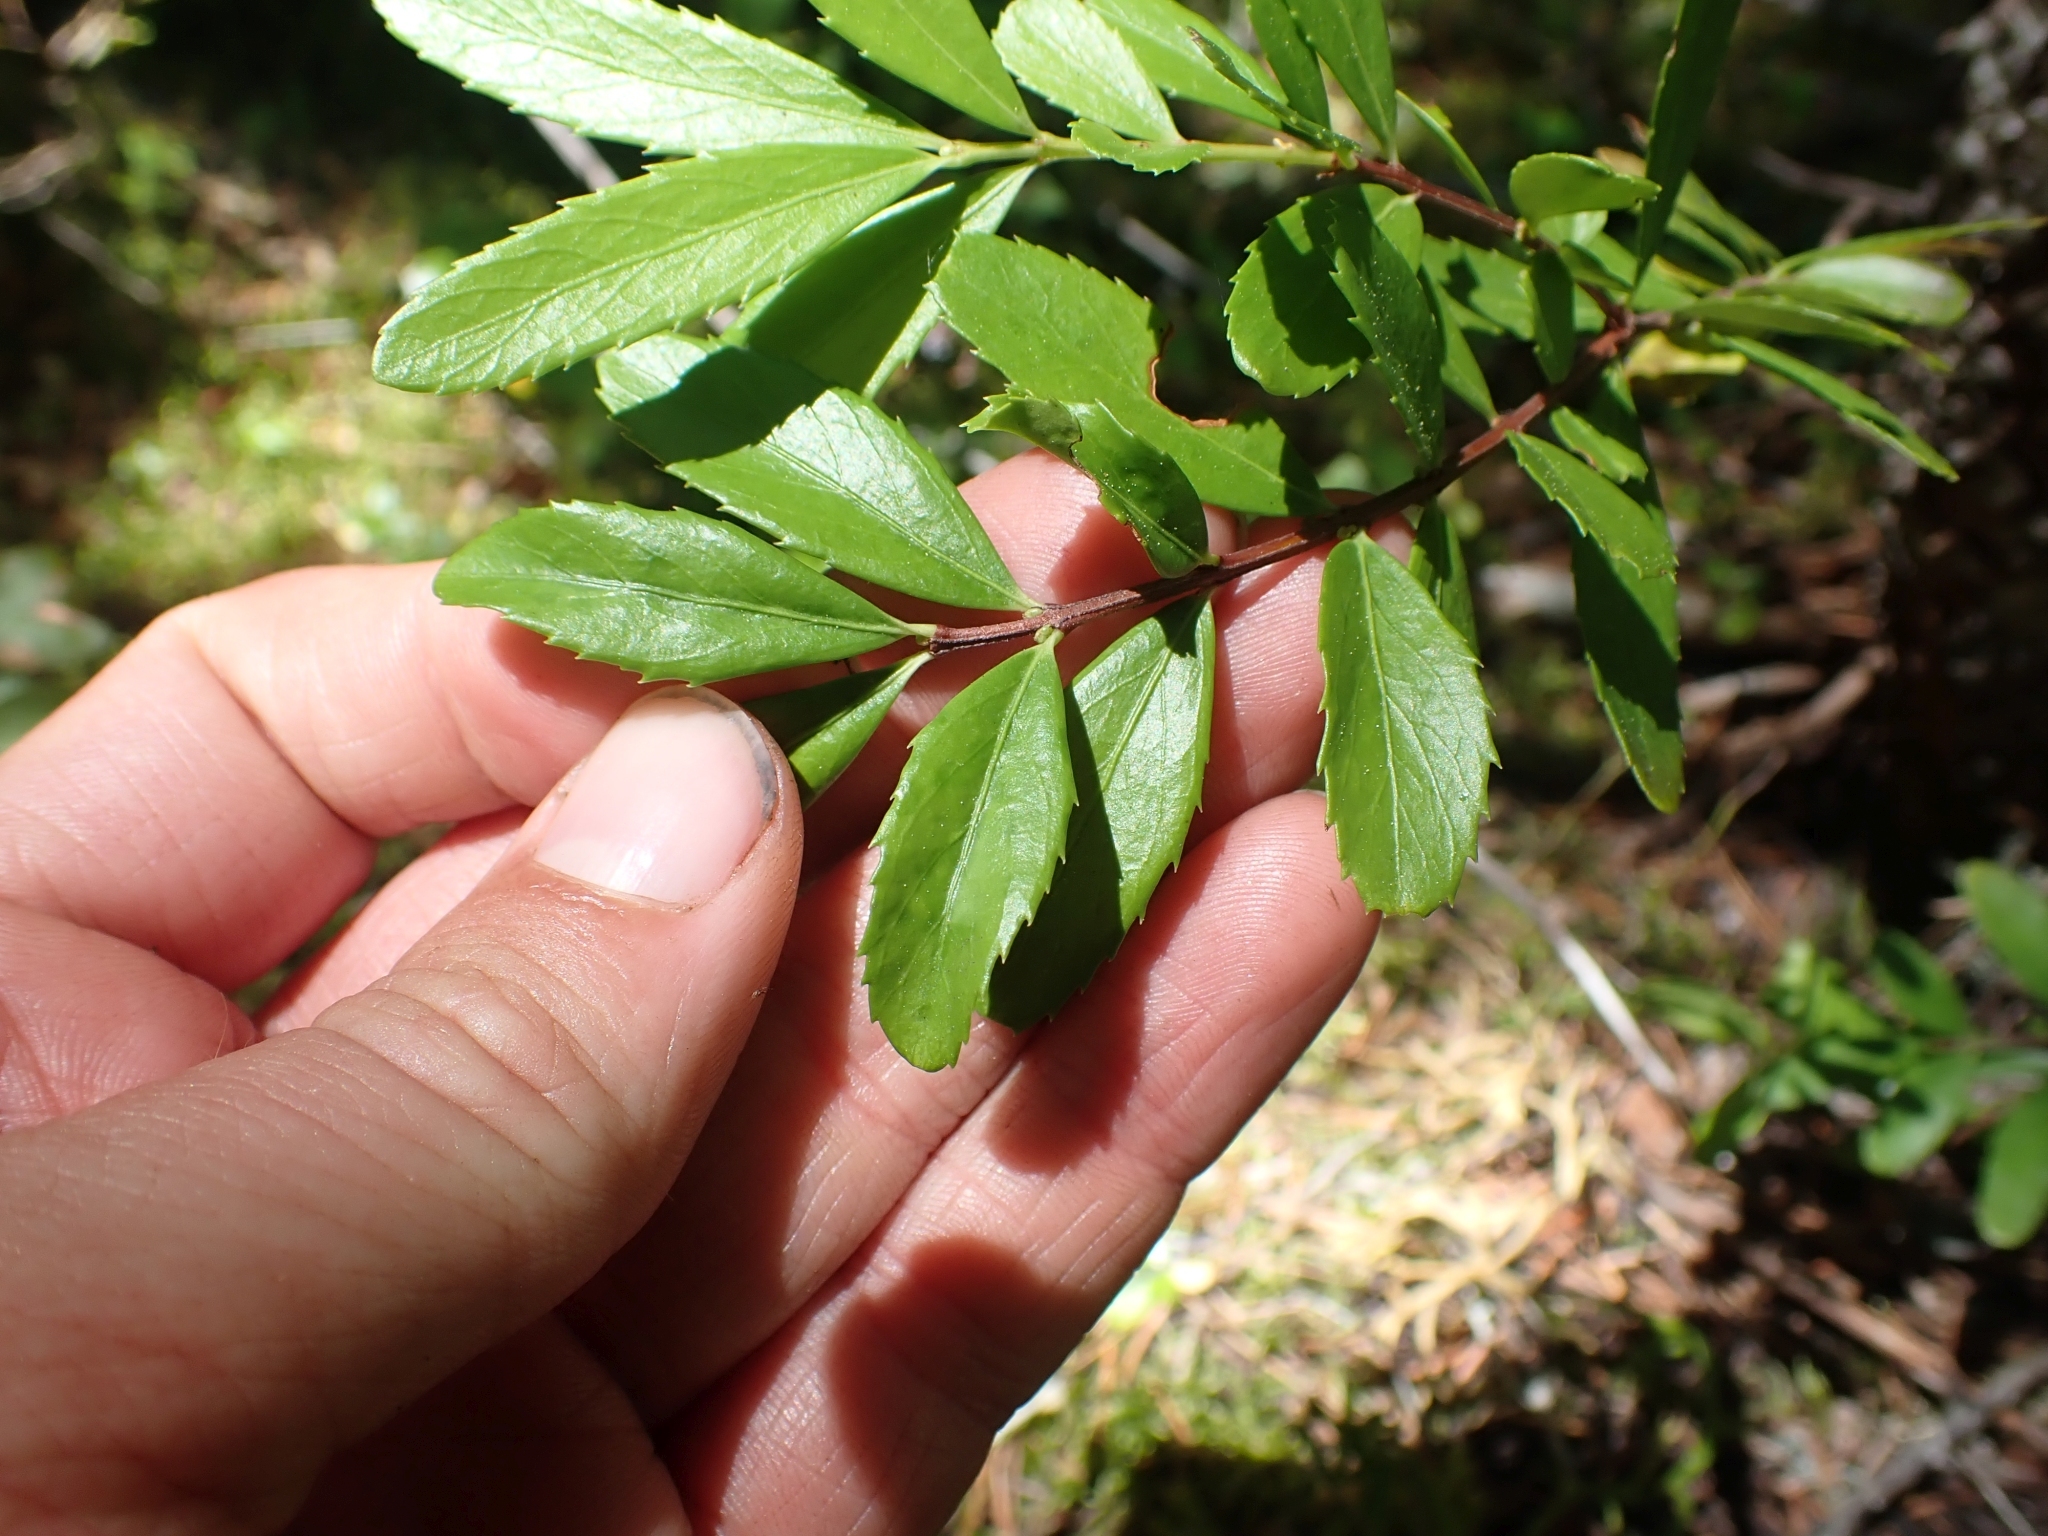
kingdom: Plantae
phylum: Tracheophyta
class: Magnoliopsida
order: Celastrales
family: Celastraceae
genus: Paxistima
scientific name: Paxistima myrsinites
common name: Mountain-lover
